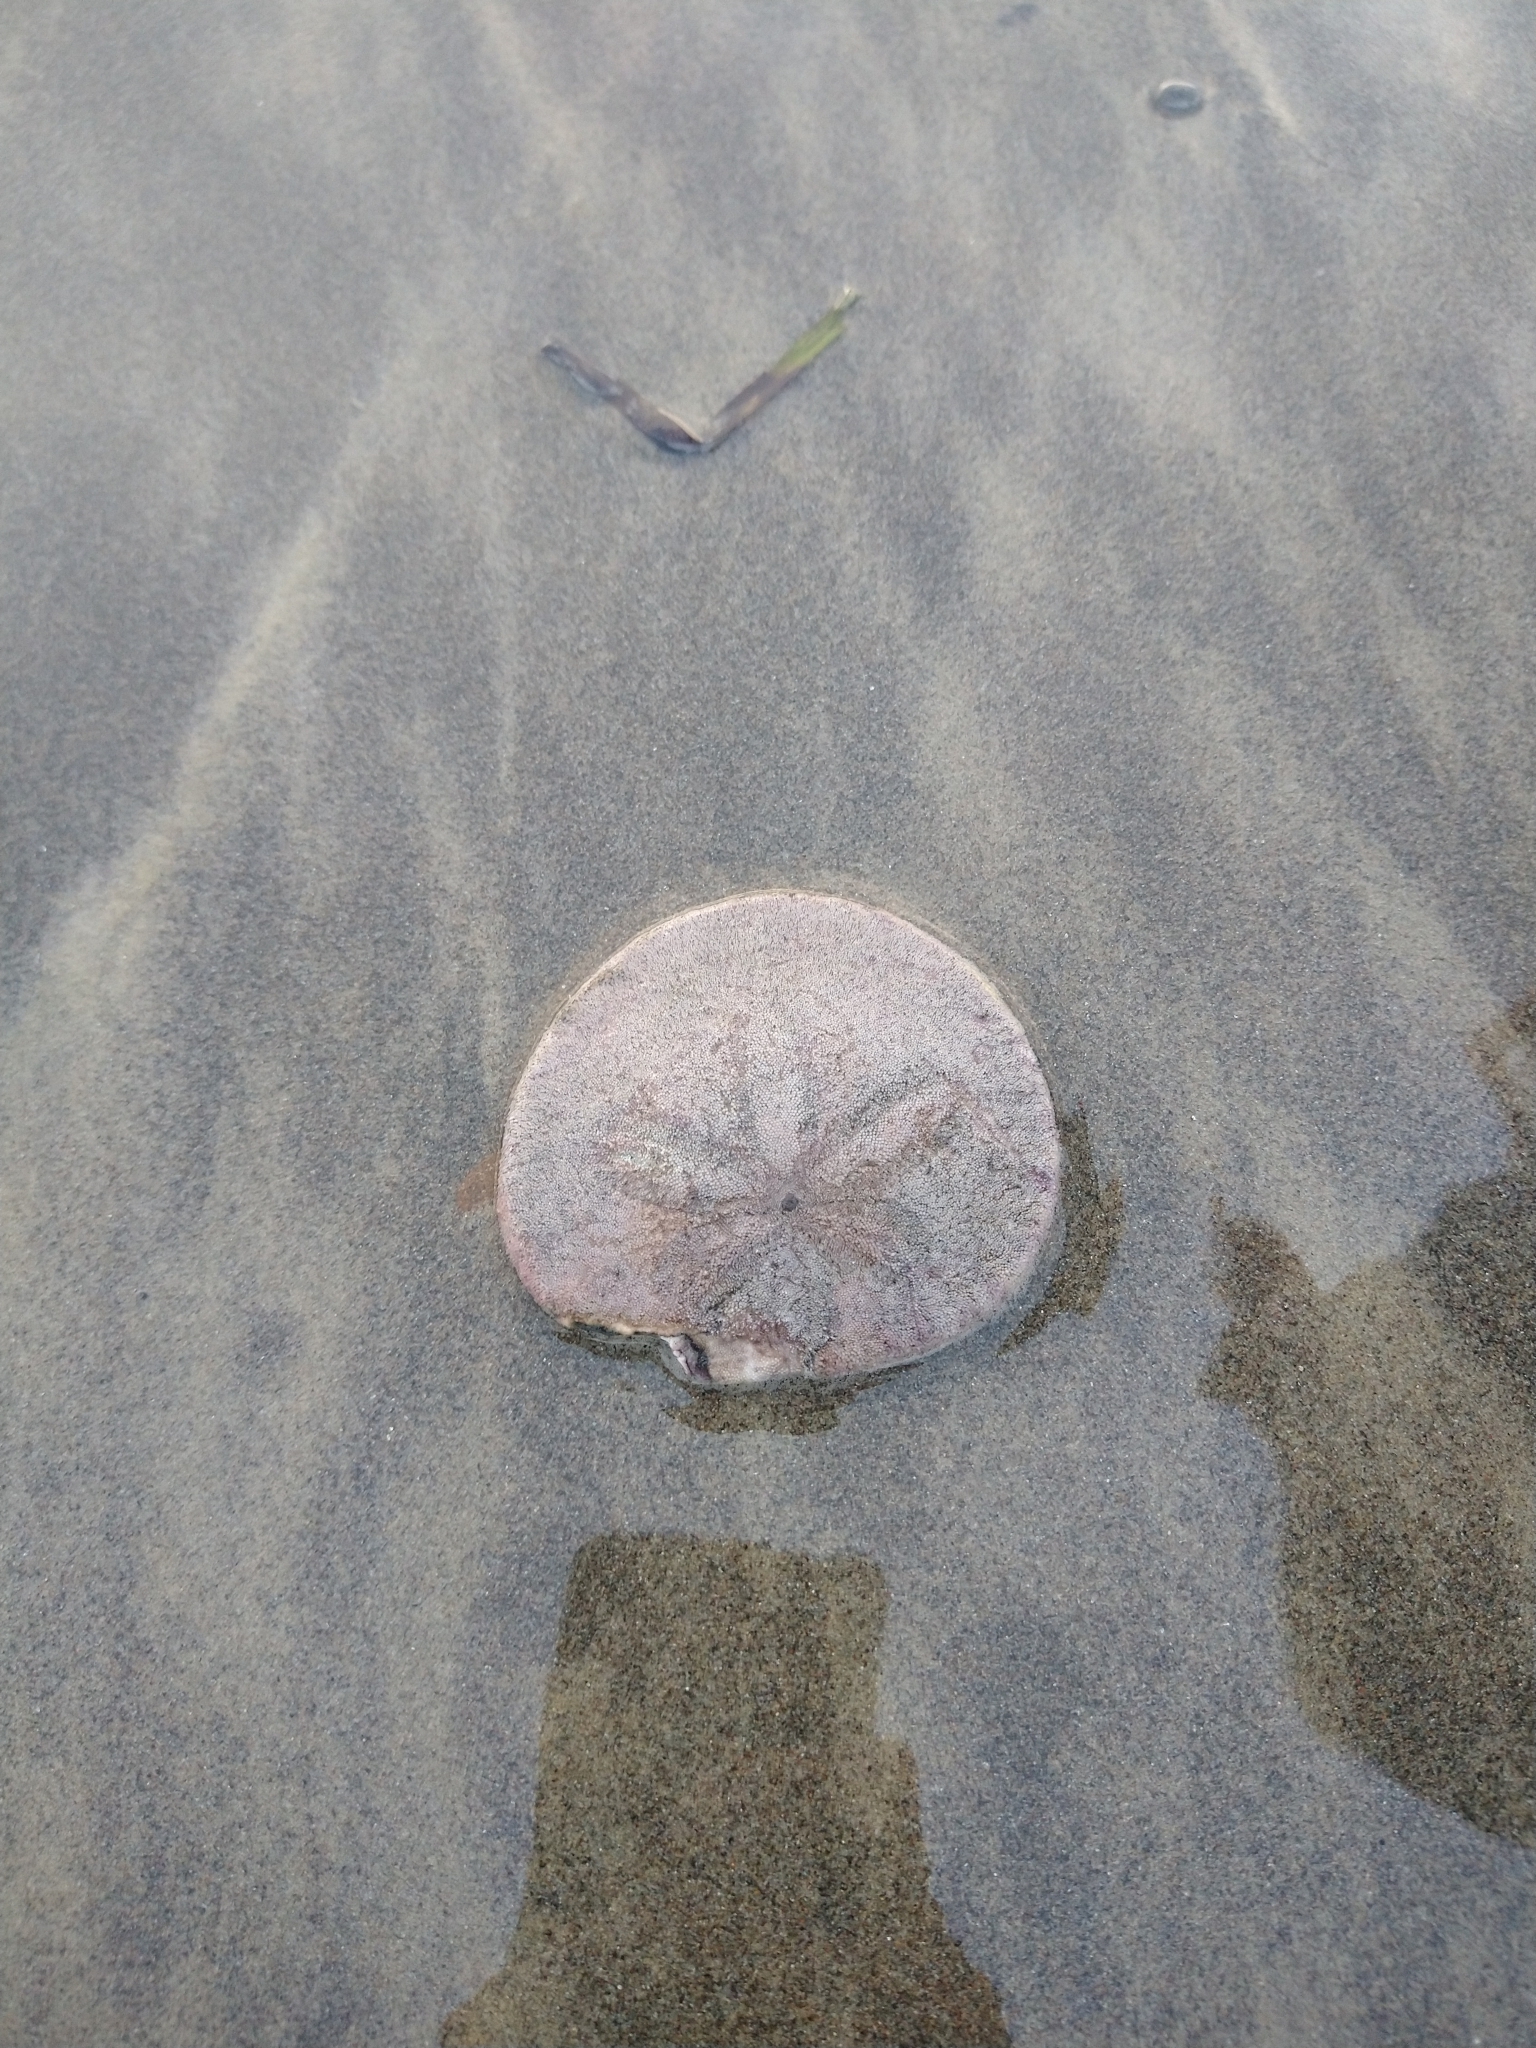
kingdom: Animalia
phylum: Echinodermata
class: Echinoidea
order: Echinolampadacea
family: Dendrasteridae
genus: Dendraster
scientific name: Dendraster excentricus
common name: Eccentric sand dollar sea urchin
